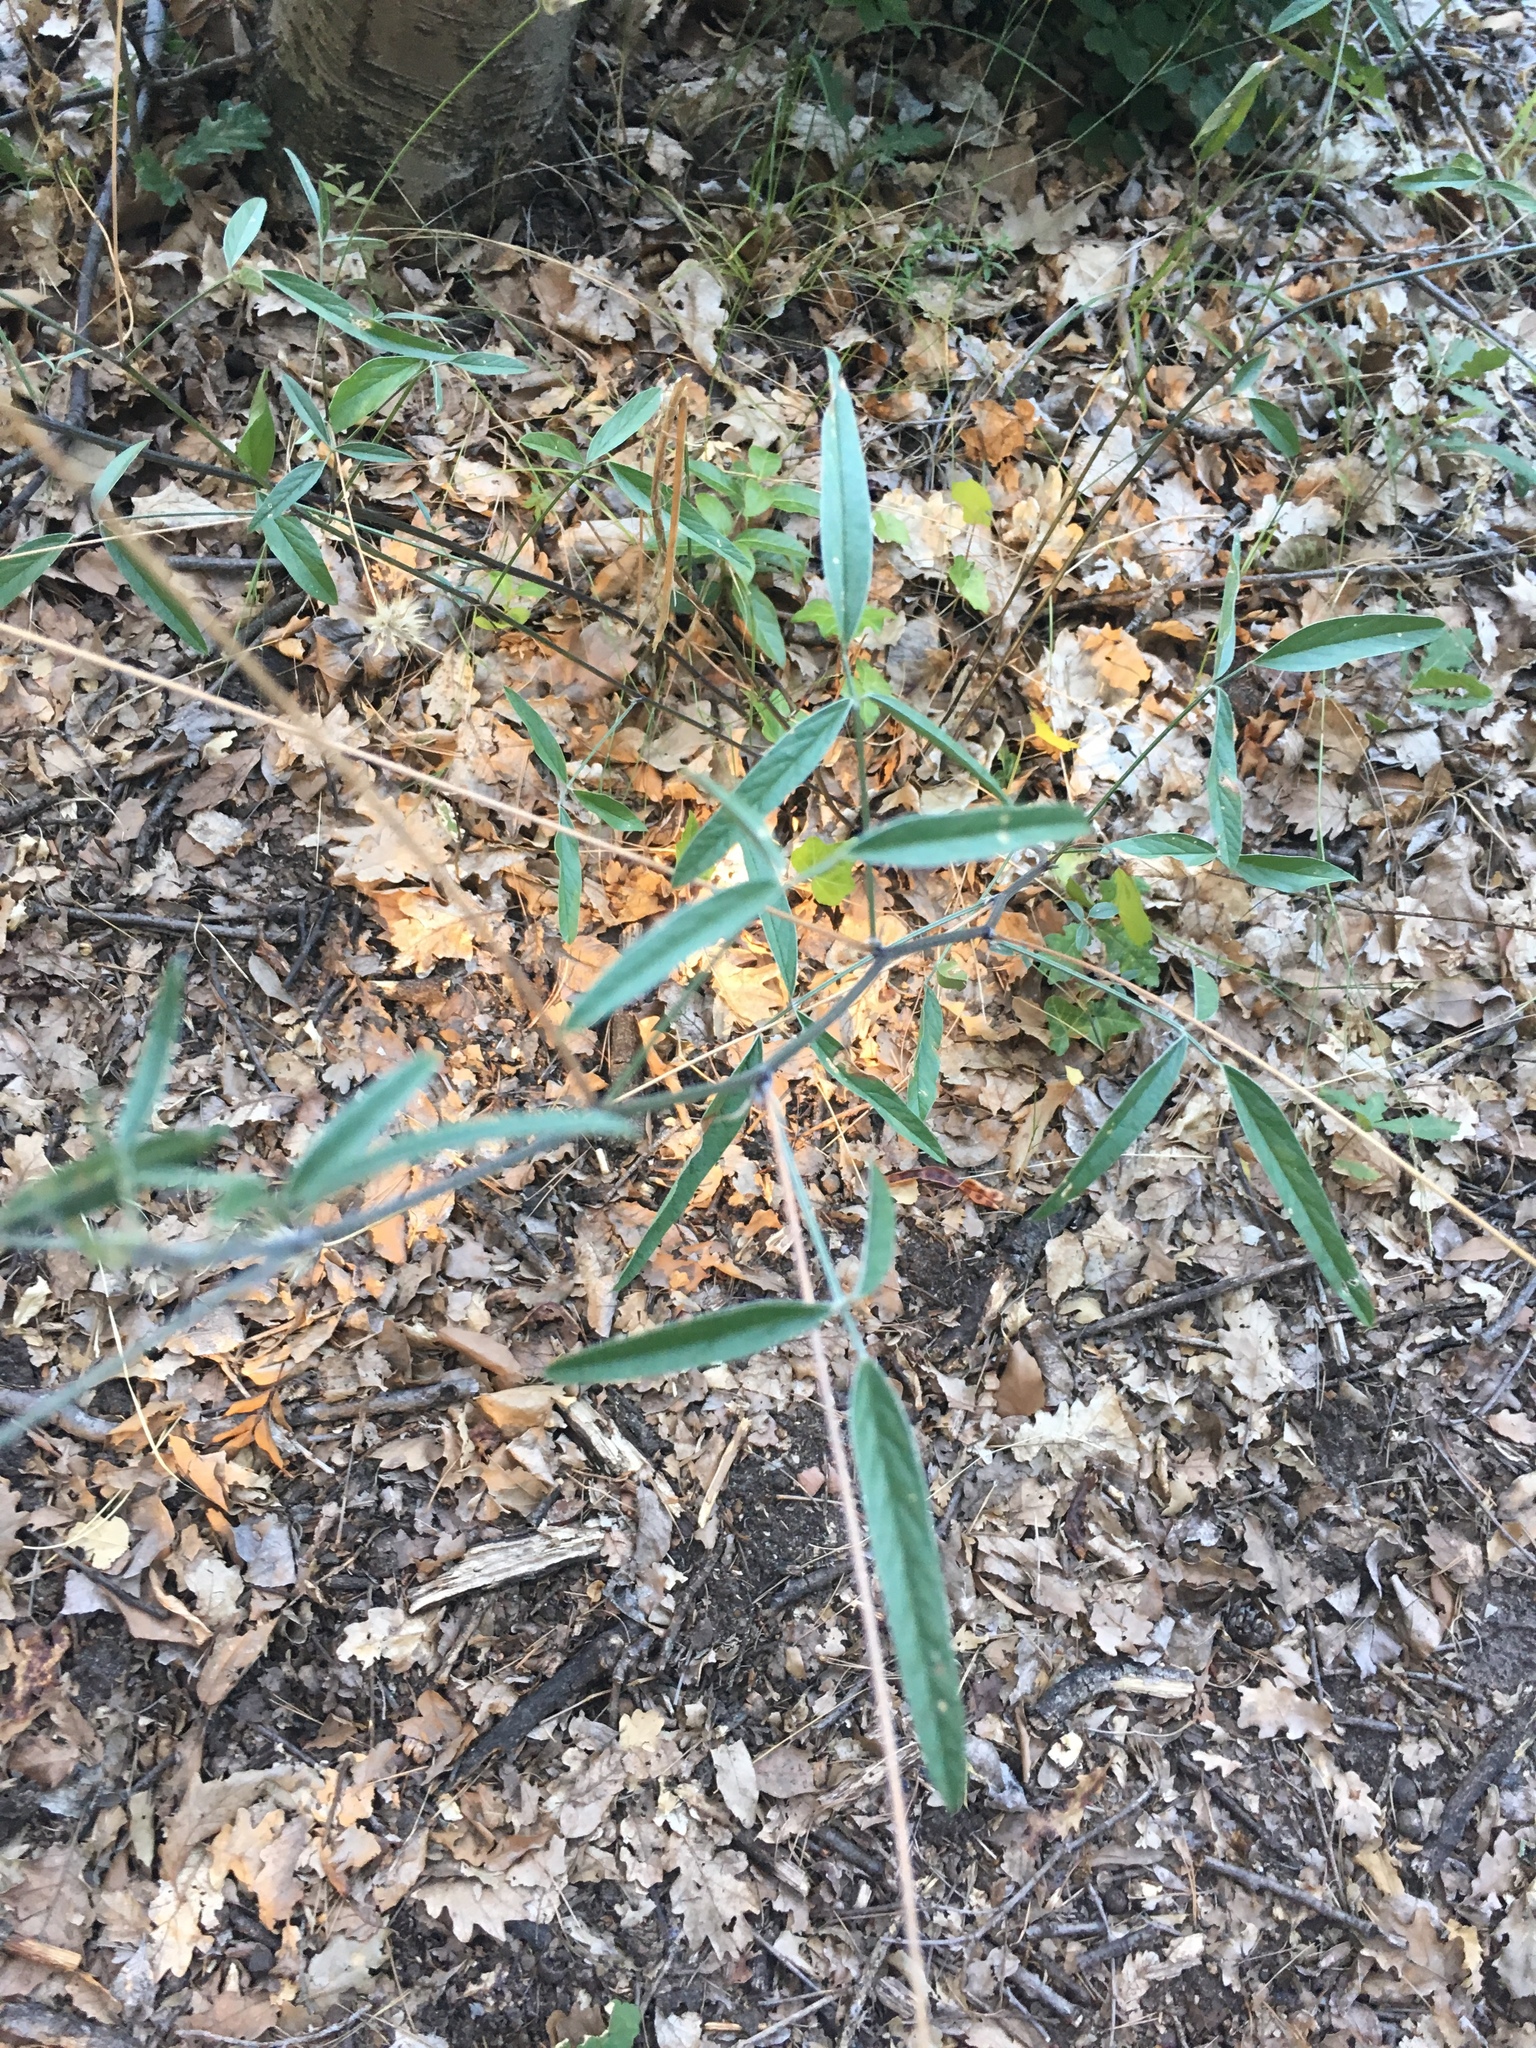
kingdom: Plantae
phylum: Tracheophyta
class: Magnoliopsida
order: Fabales
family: Fabaceae
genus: Bituminaria
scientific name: Bituminaria bituminosa
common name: Arabian pea
